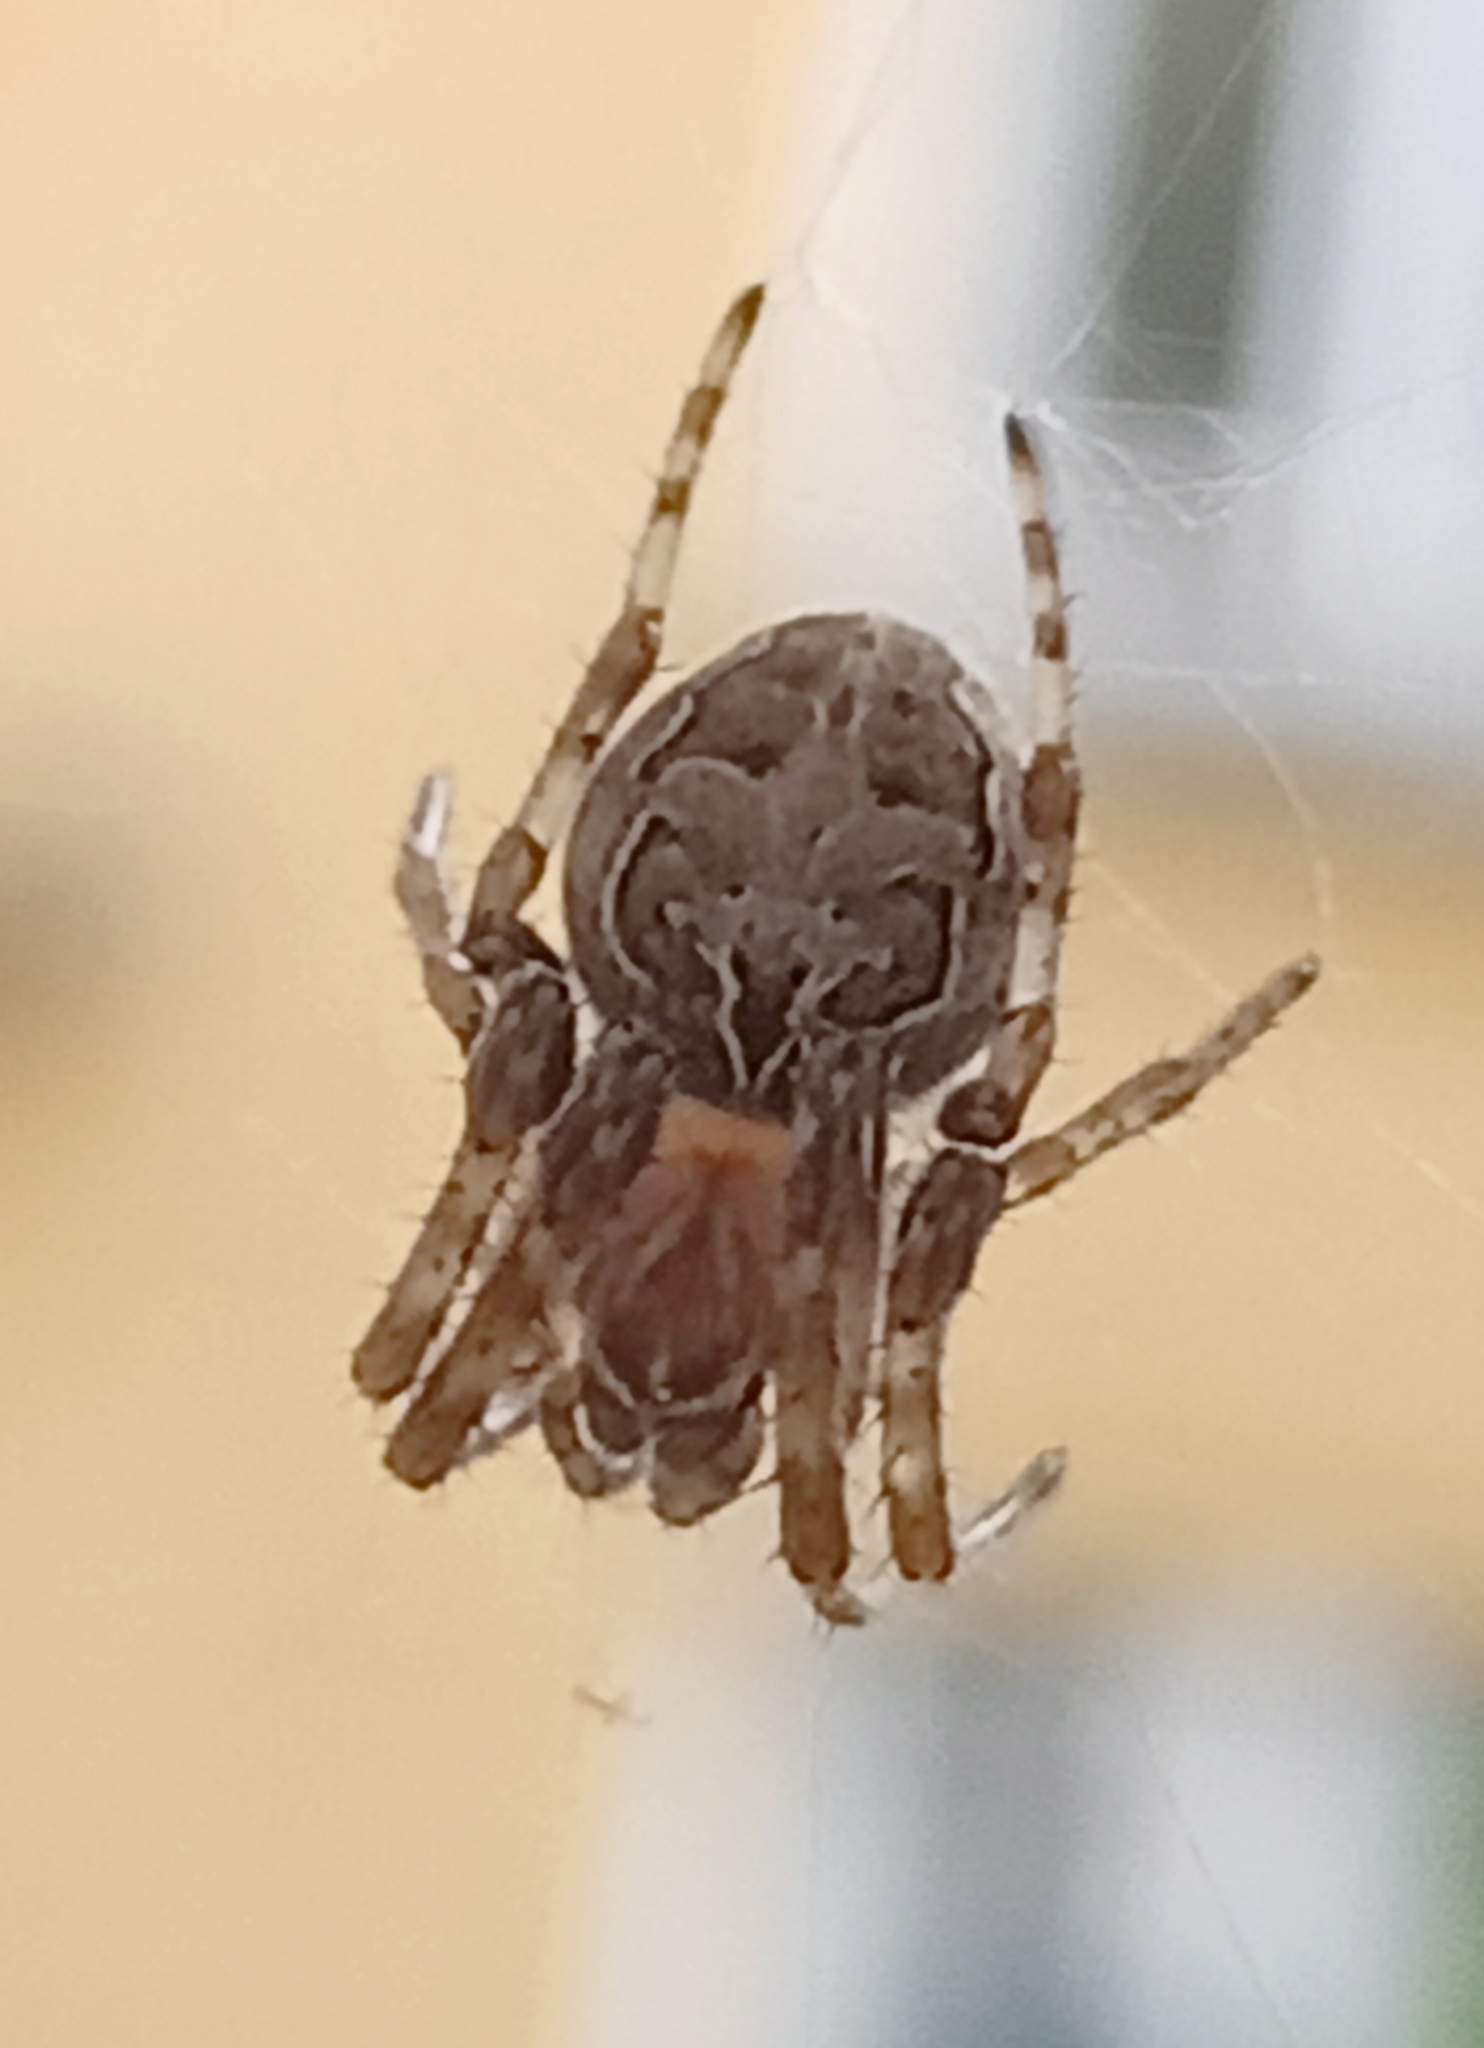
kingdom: Animalia
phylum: Arthropoda
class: Arachnida
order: Araneae
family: Araneidae
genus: Larinioides
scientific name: Larinioides sclopetarius
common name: Bridge orbweaver
